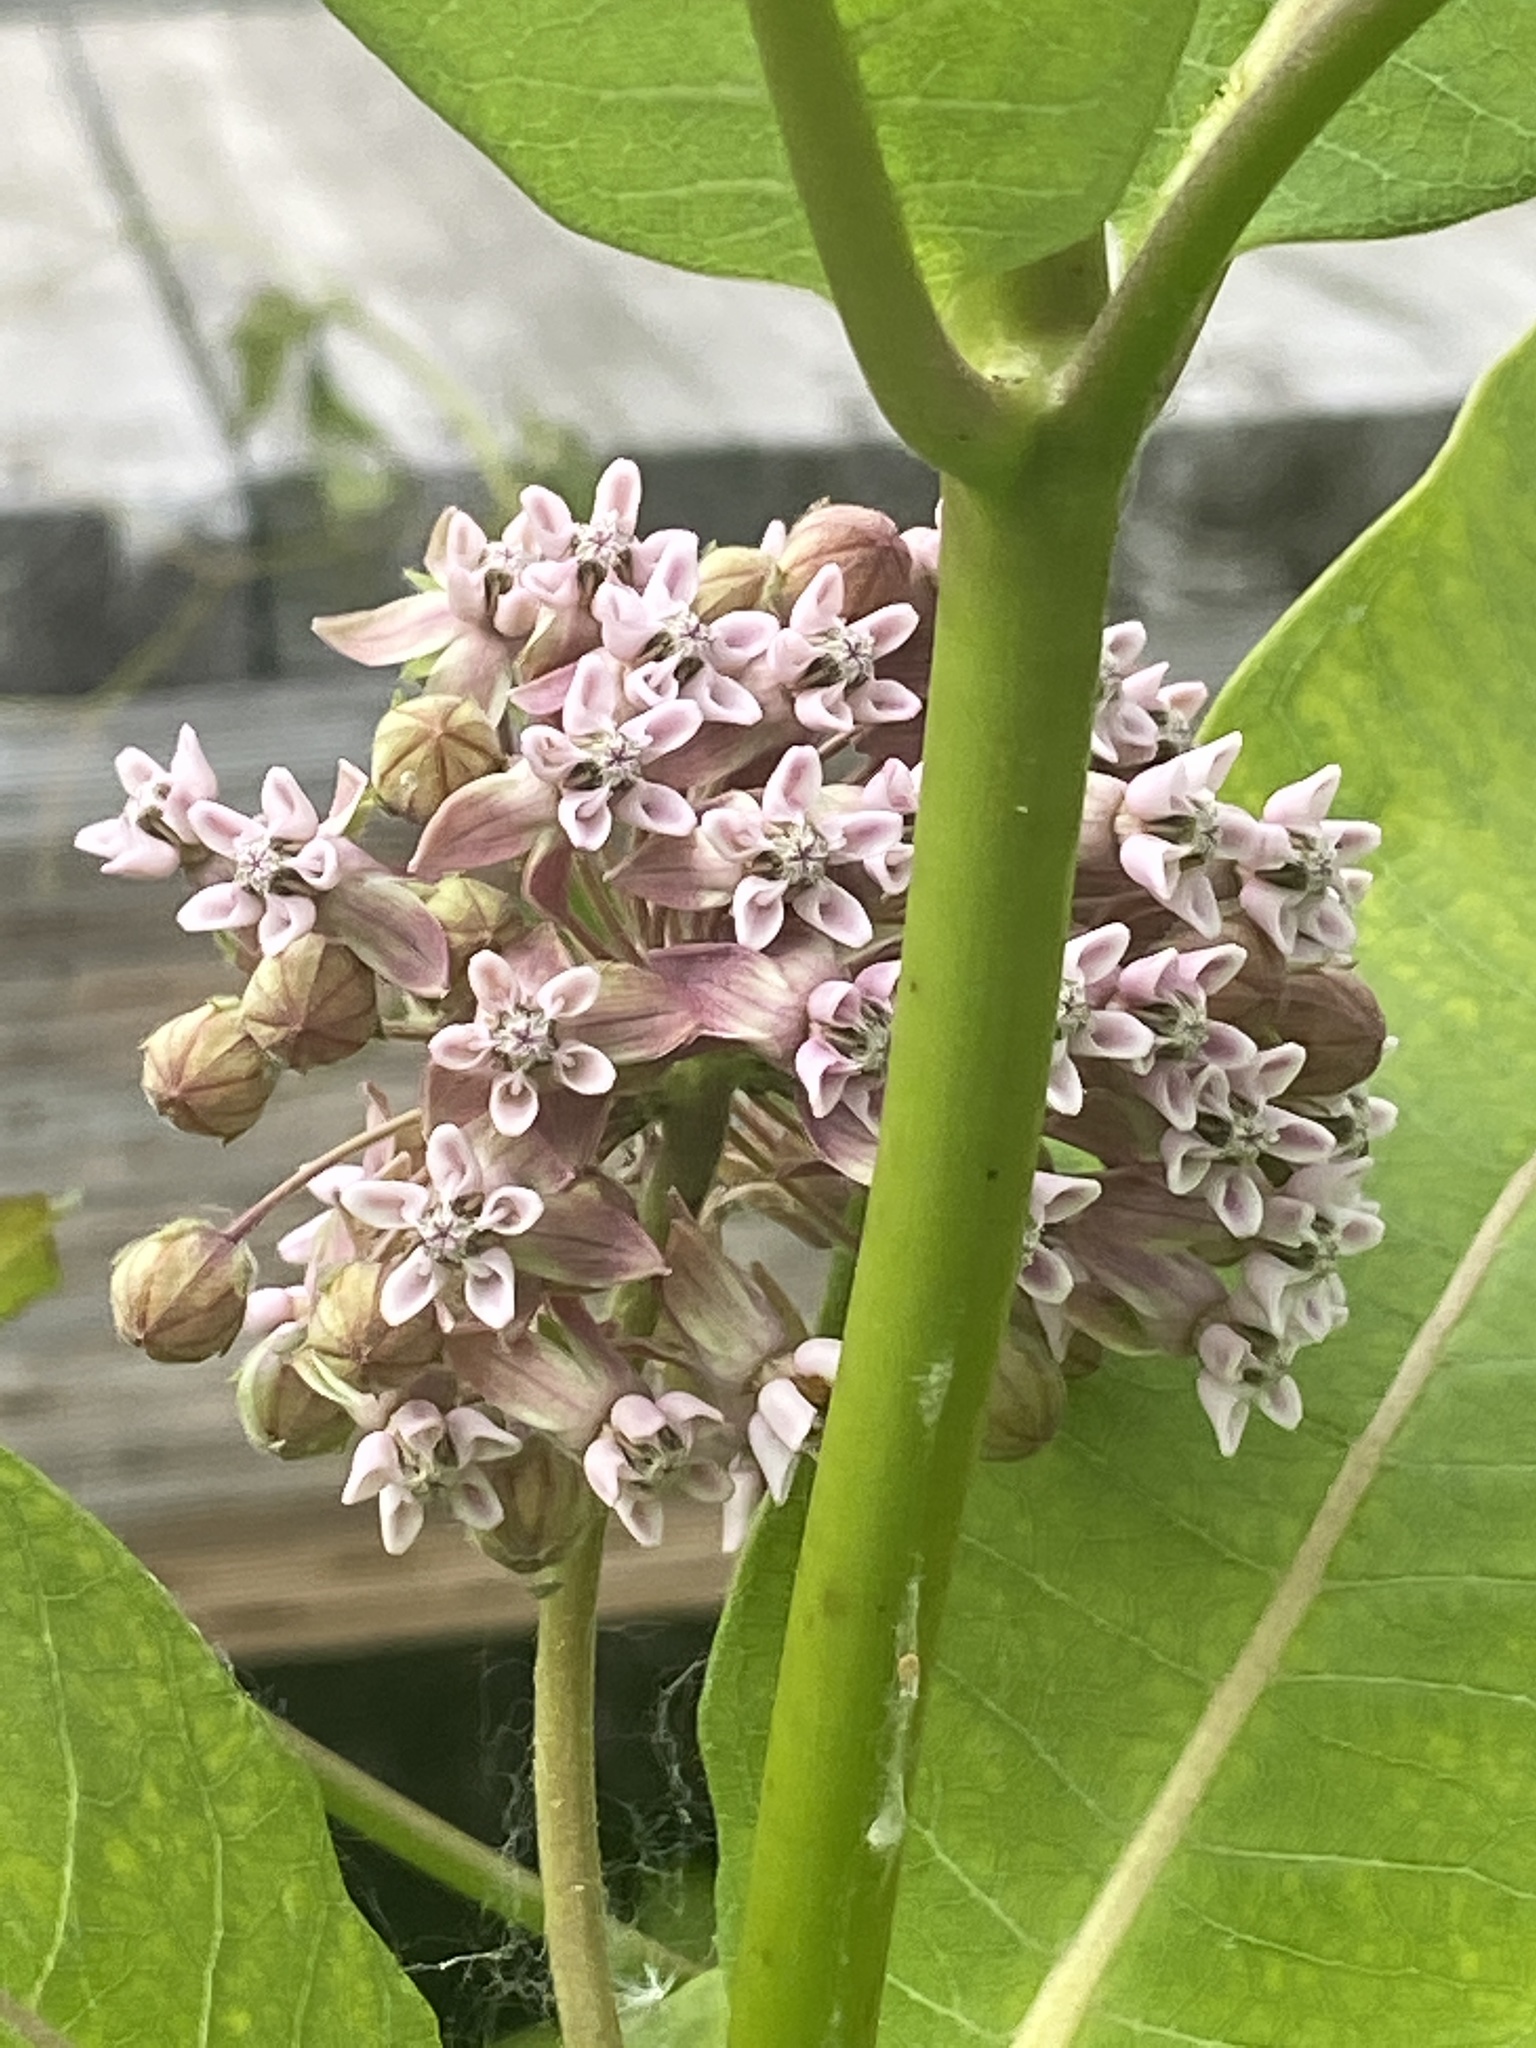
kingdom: Plantae
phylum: Tracheophyta
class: Magnoliopsida
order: Gentianales
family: Apocynaceae
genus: Asclepias
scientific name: Asclepias syriaca
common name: Common milkweed
